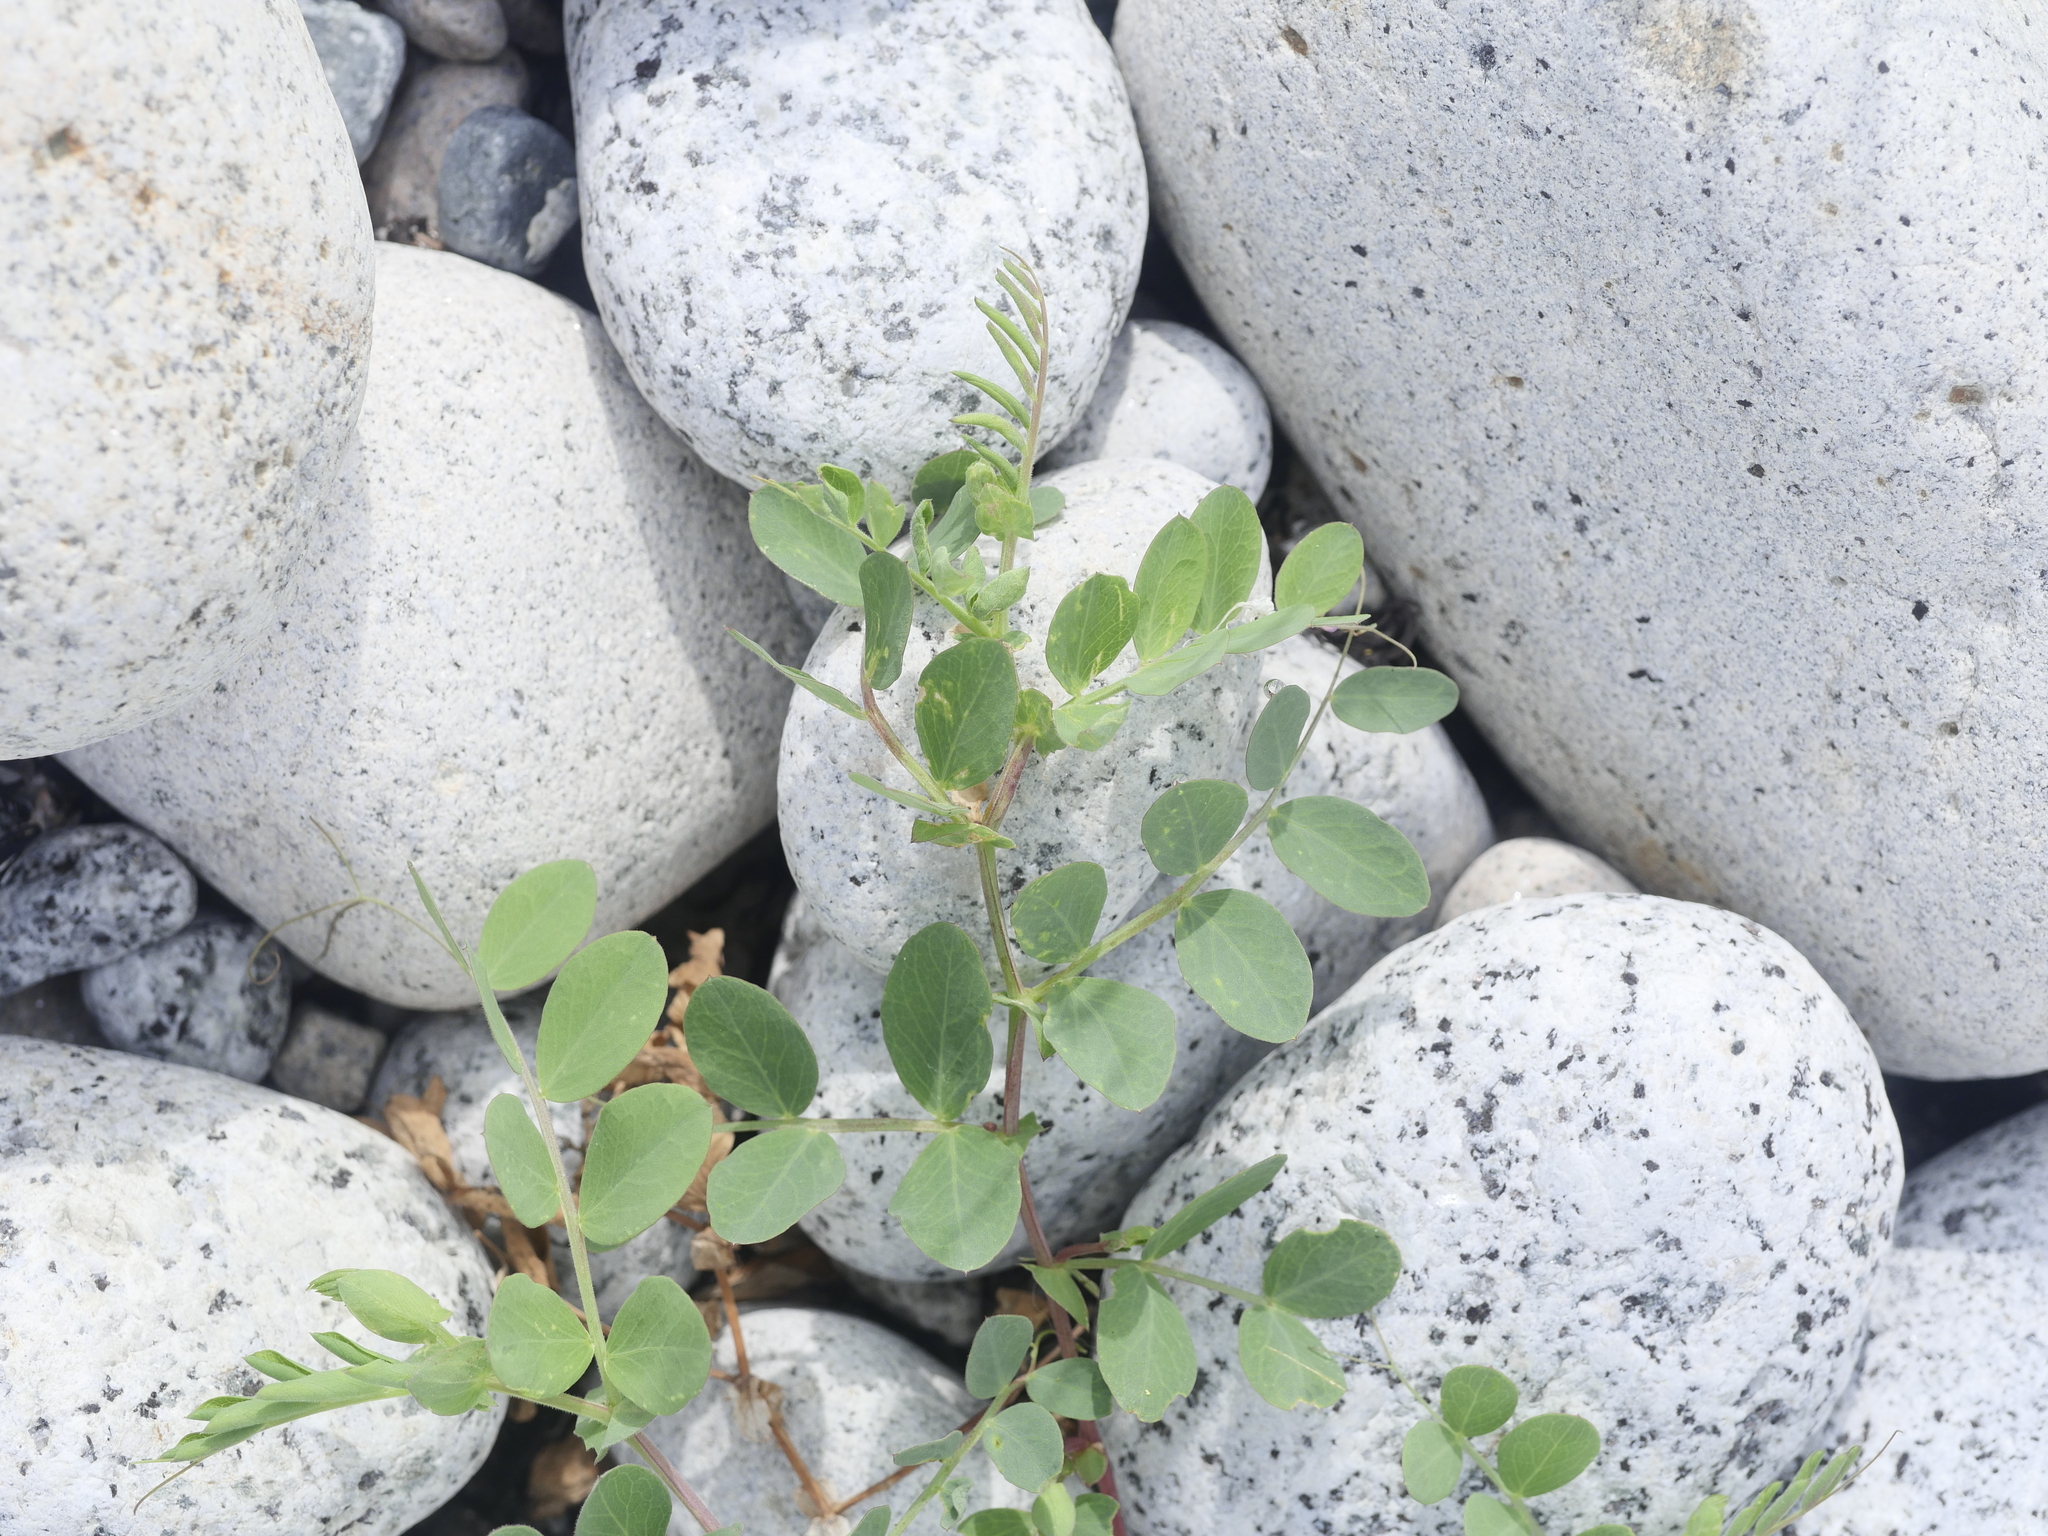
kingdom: Plantae
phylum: Tracheophyta
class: Magnoliopsida
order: Fabales
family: Fabaceae
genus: Lathyrus
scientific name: Lathyrus japonicus
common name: Sea pea
